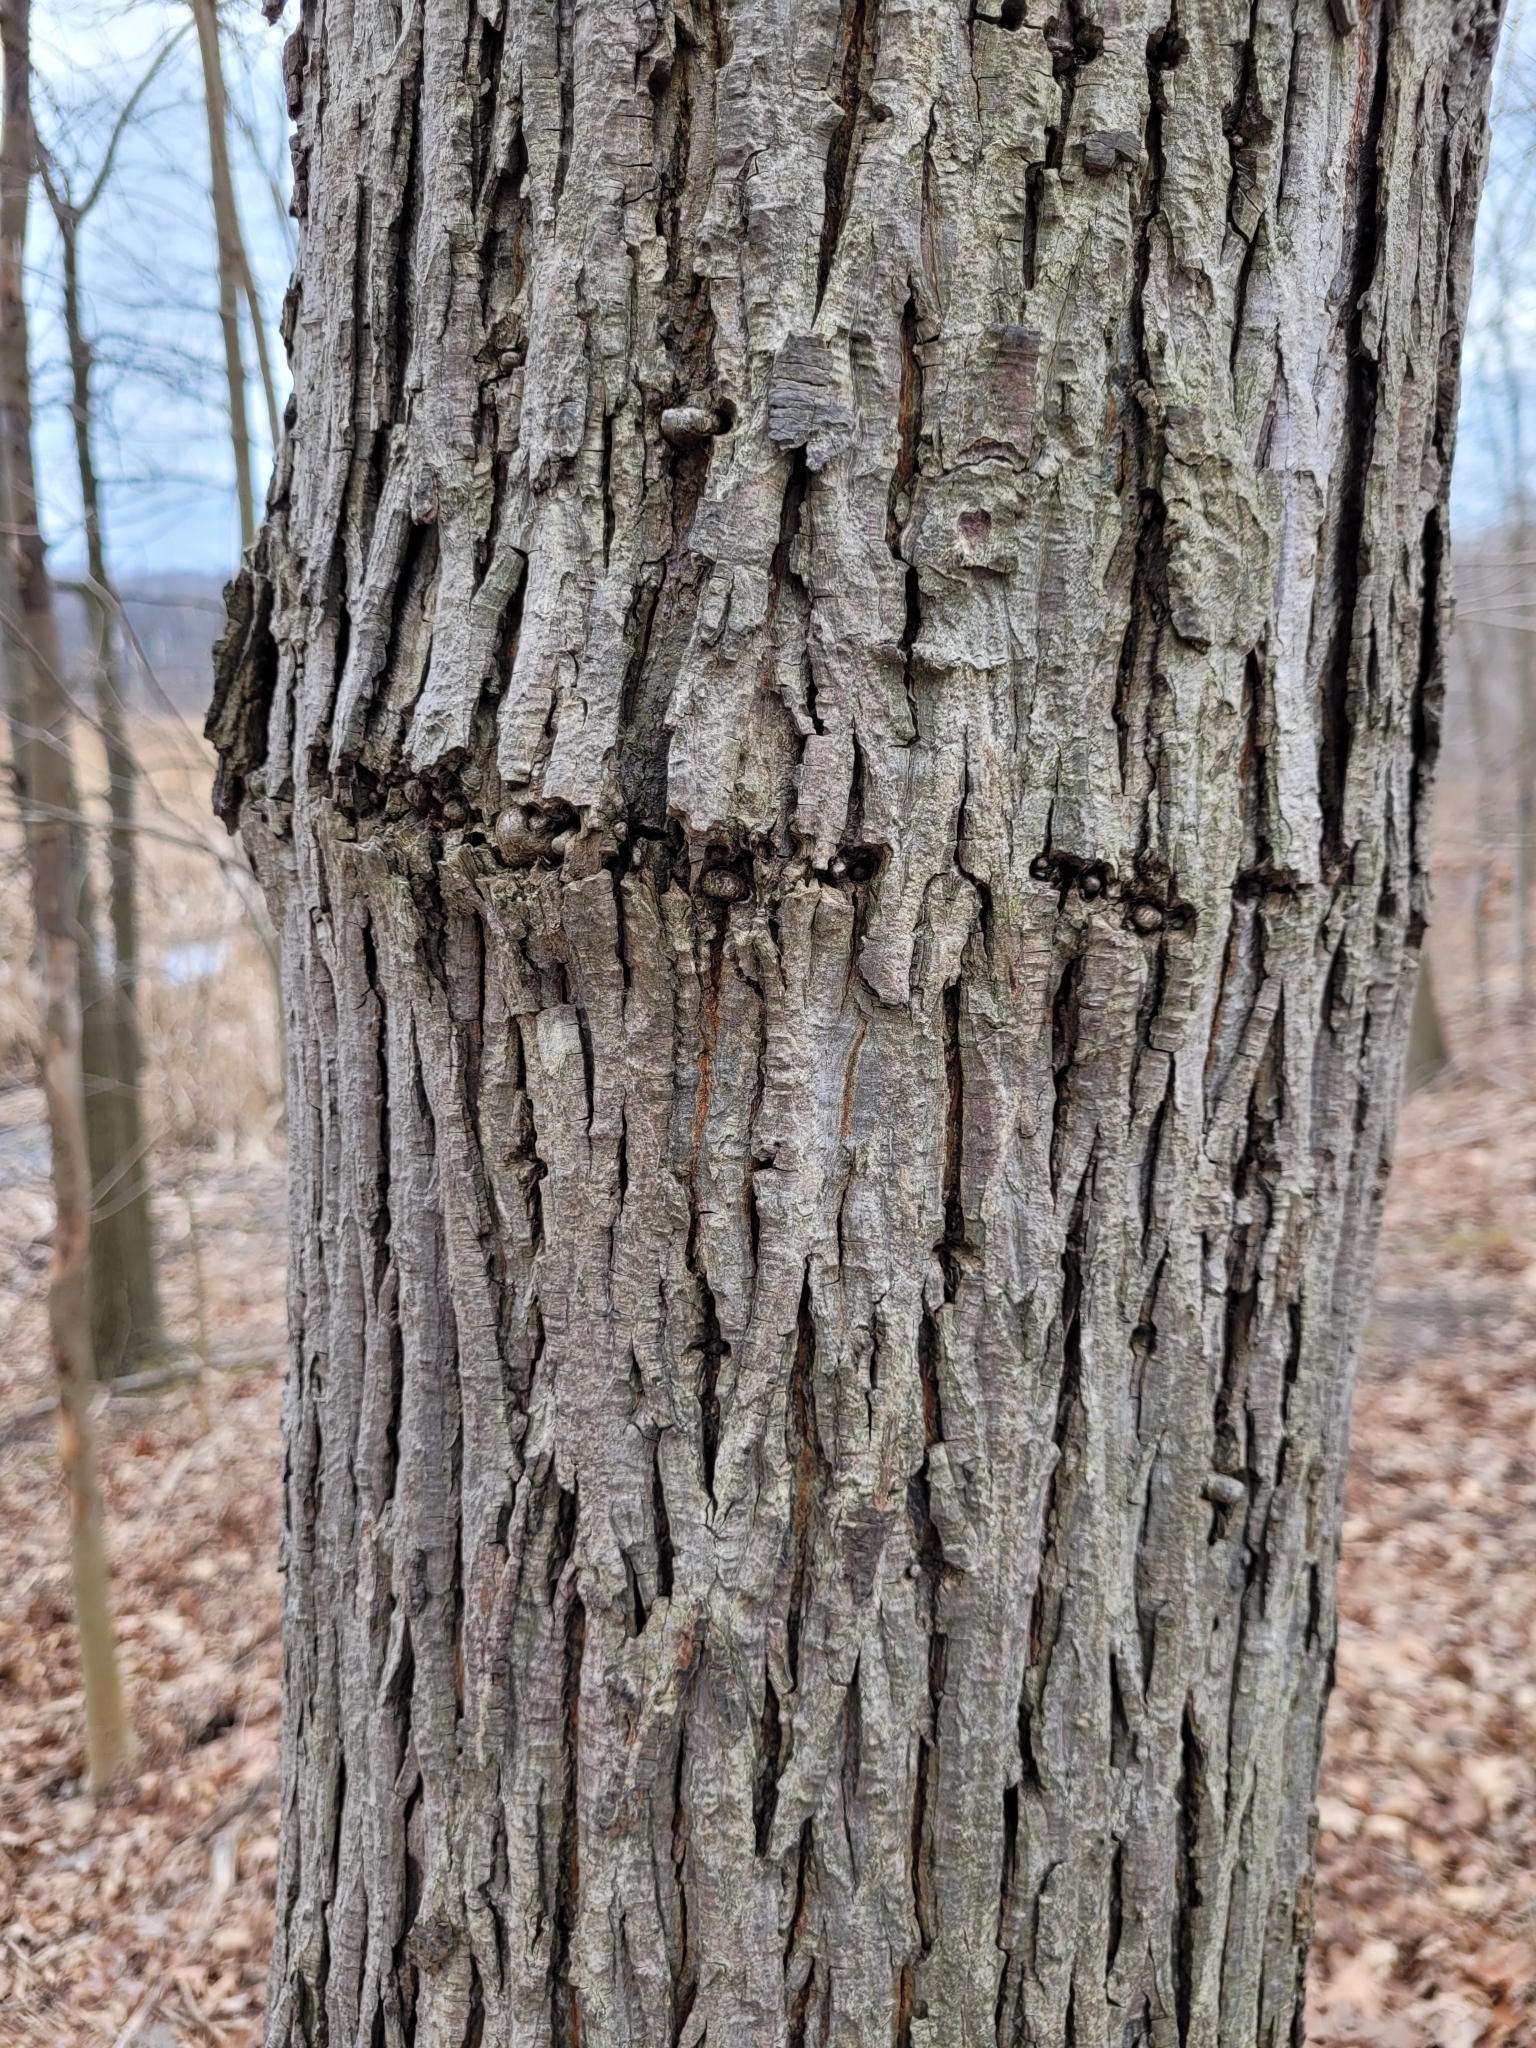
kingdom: Animalia
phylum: Chordata
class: Aves
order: Piciformes
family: Picidae
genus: Sphyrapicus
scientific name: Sphyrapicus varius
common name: Yellow-bellied sapsucker
